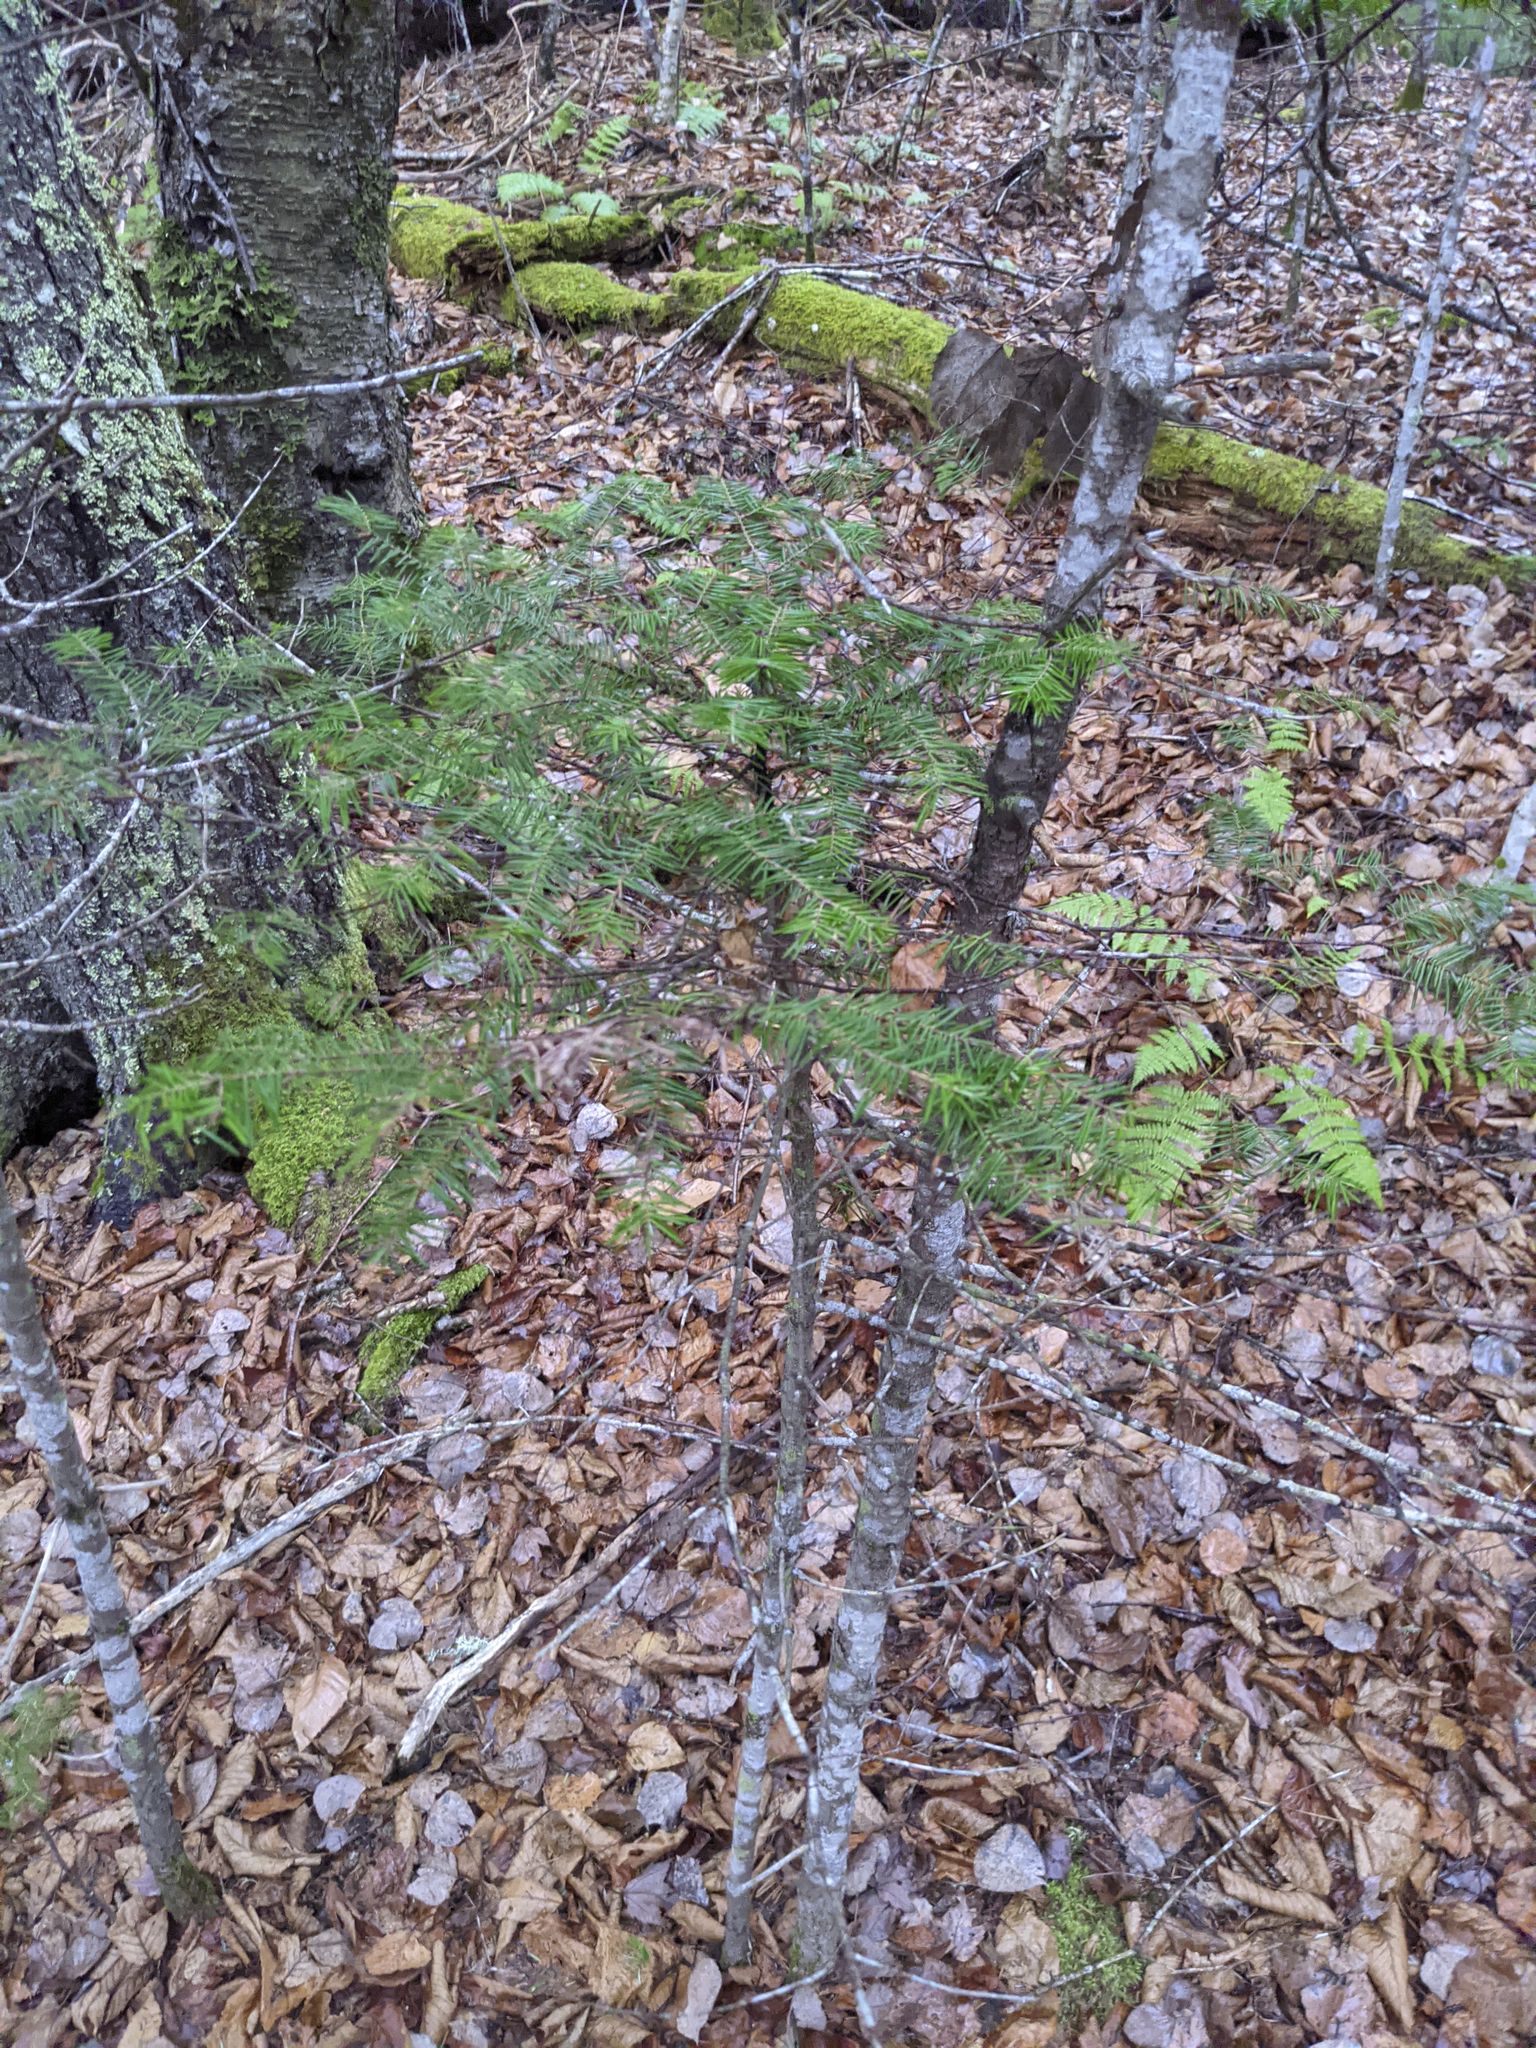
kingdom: Plantae
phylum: Tracheophyta
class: Pinopsida
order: Pinales
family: Pinaceae
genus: Abies
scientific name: Abies balsamea
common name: Balsam fir
